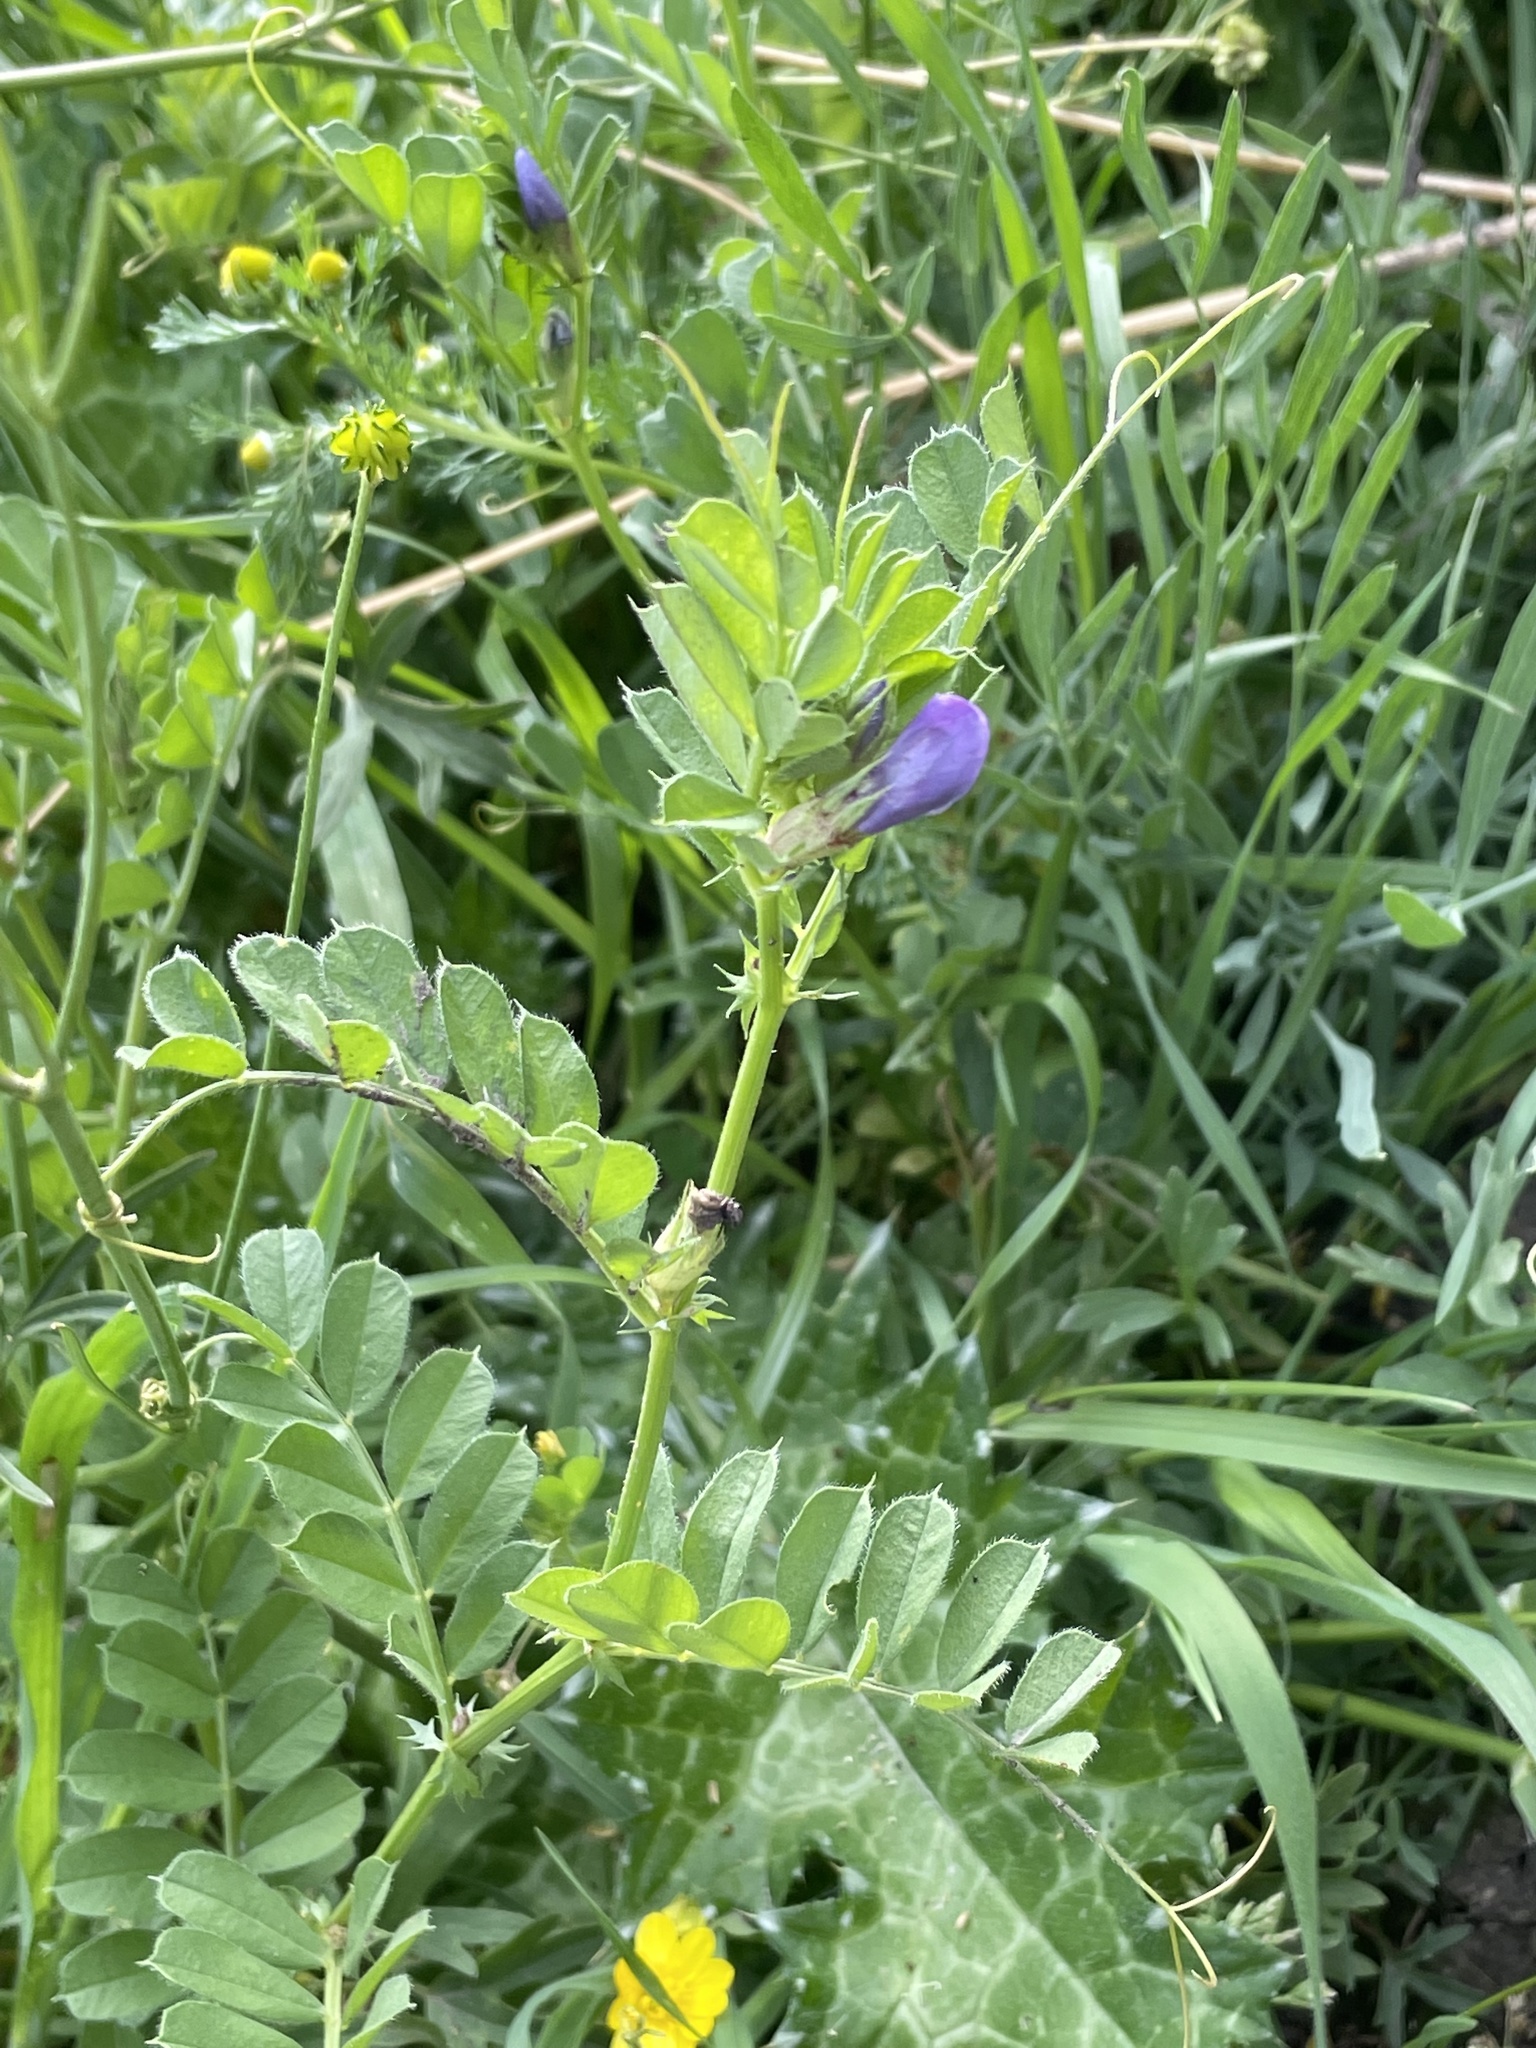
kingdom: Plantae
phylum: Tracheophyta
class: Magnoliopsida
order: Fabales
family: Fabaceae
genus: Vicia
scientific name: Vicia sativa
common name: Garden vetch
